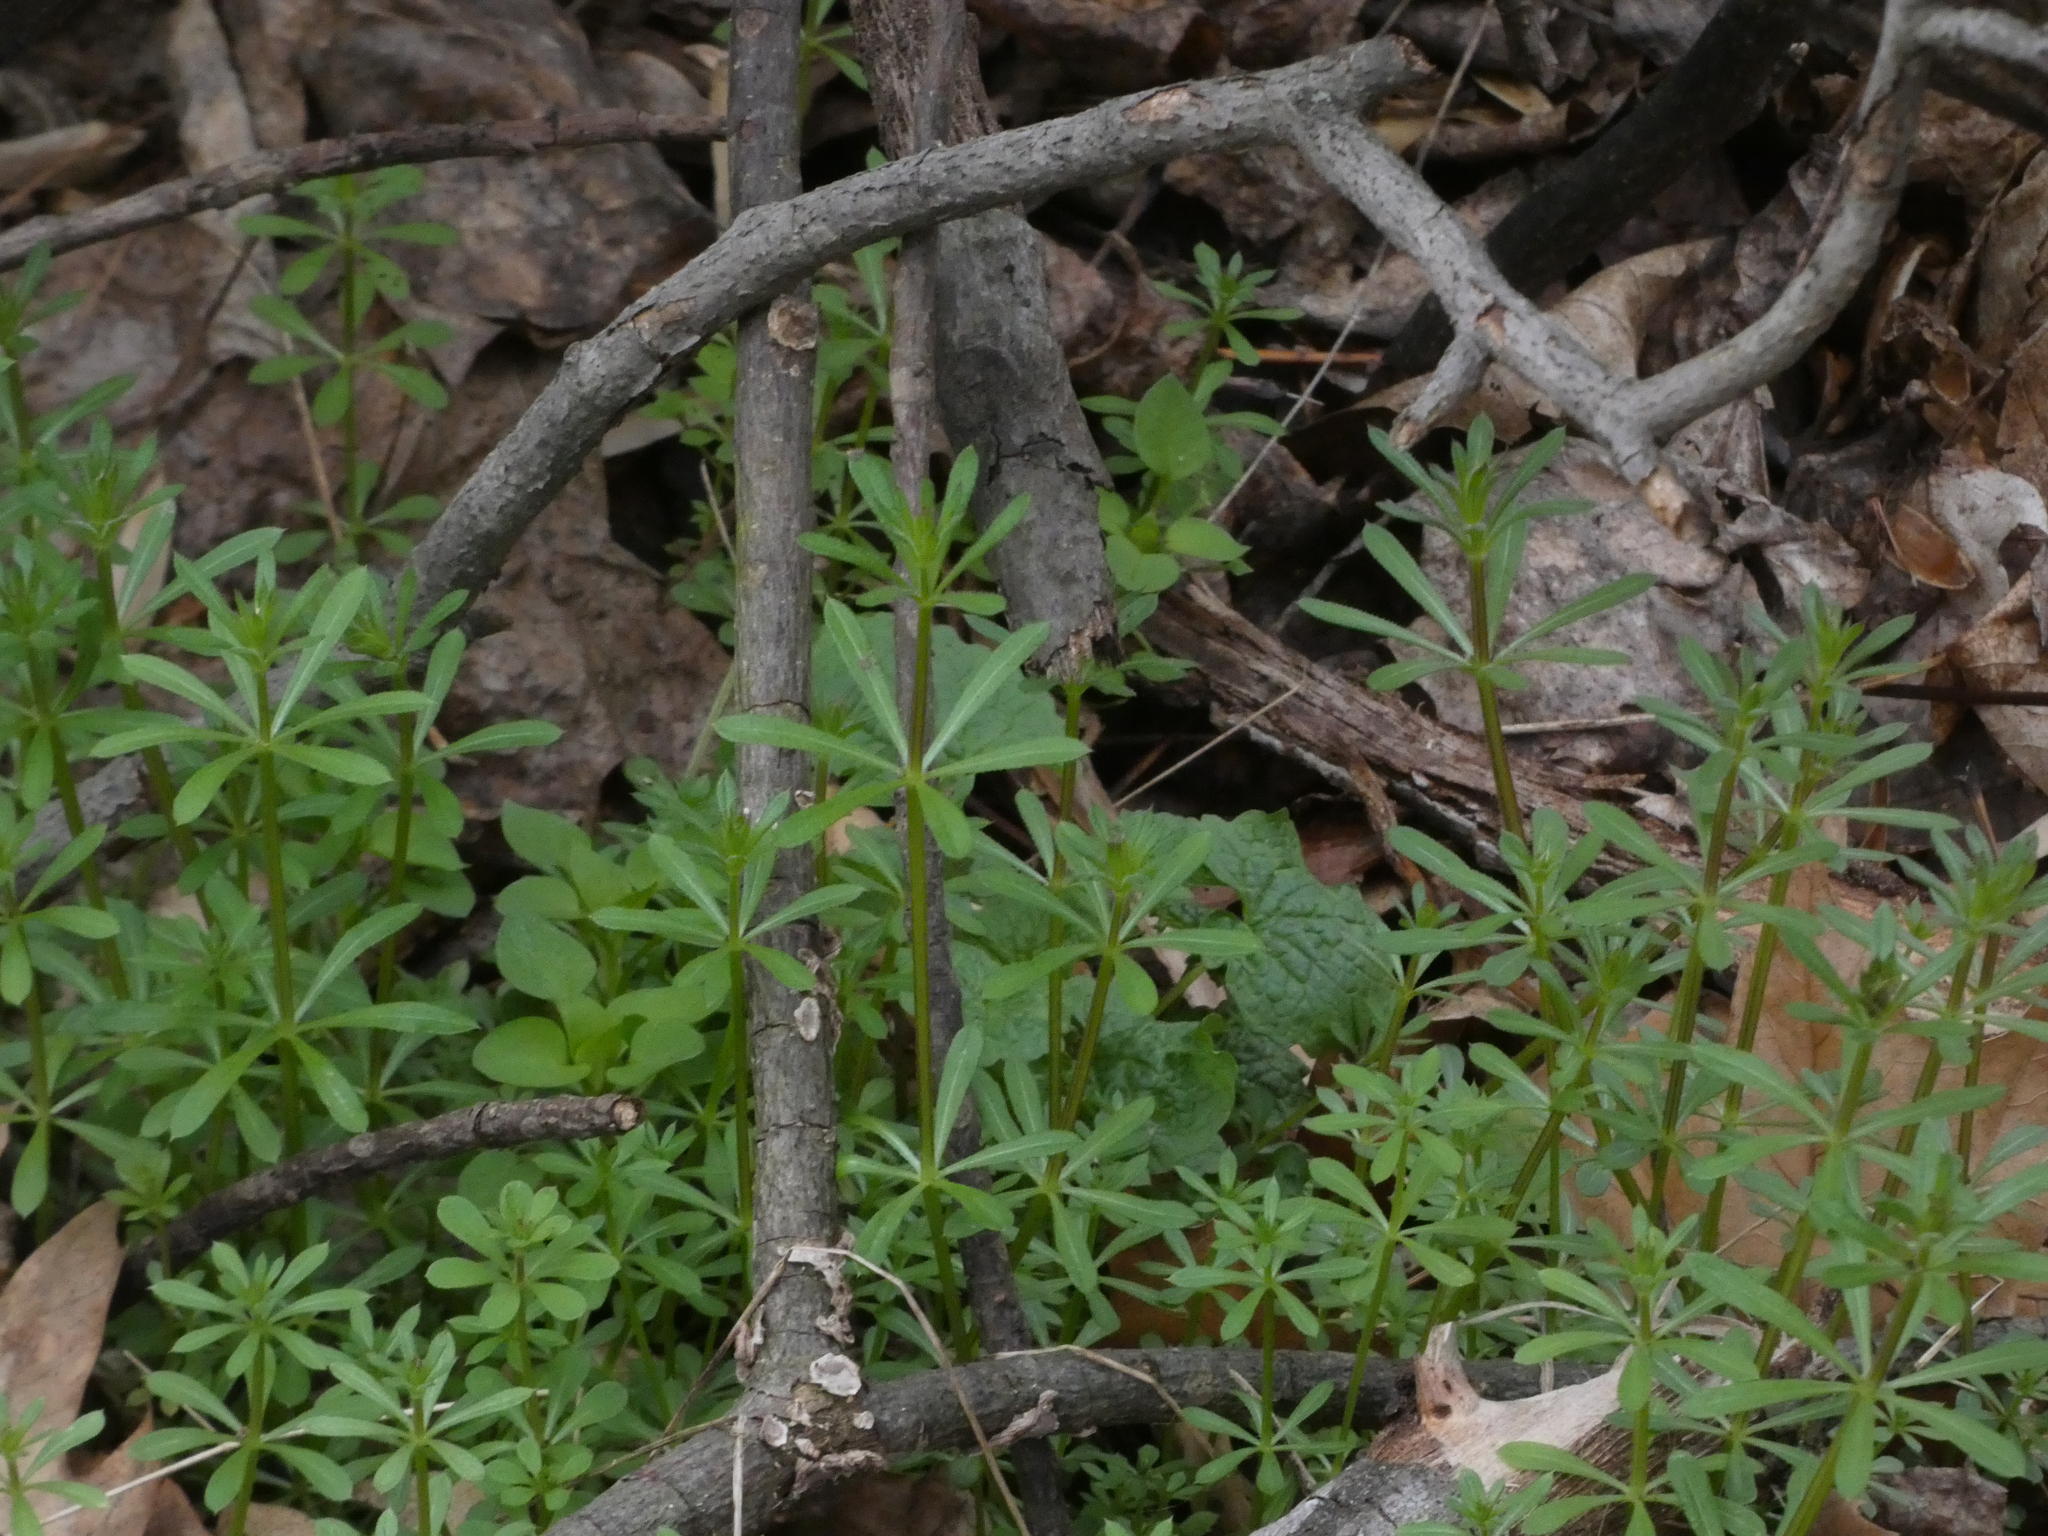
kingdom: Plantae
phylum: Tracheophyta
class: Magnoliopsida
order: Gentianales
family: Rubiaceae
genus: Galium
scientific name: Galium aparine
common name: Cleavers
